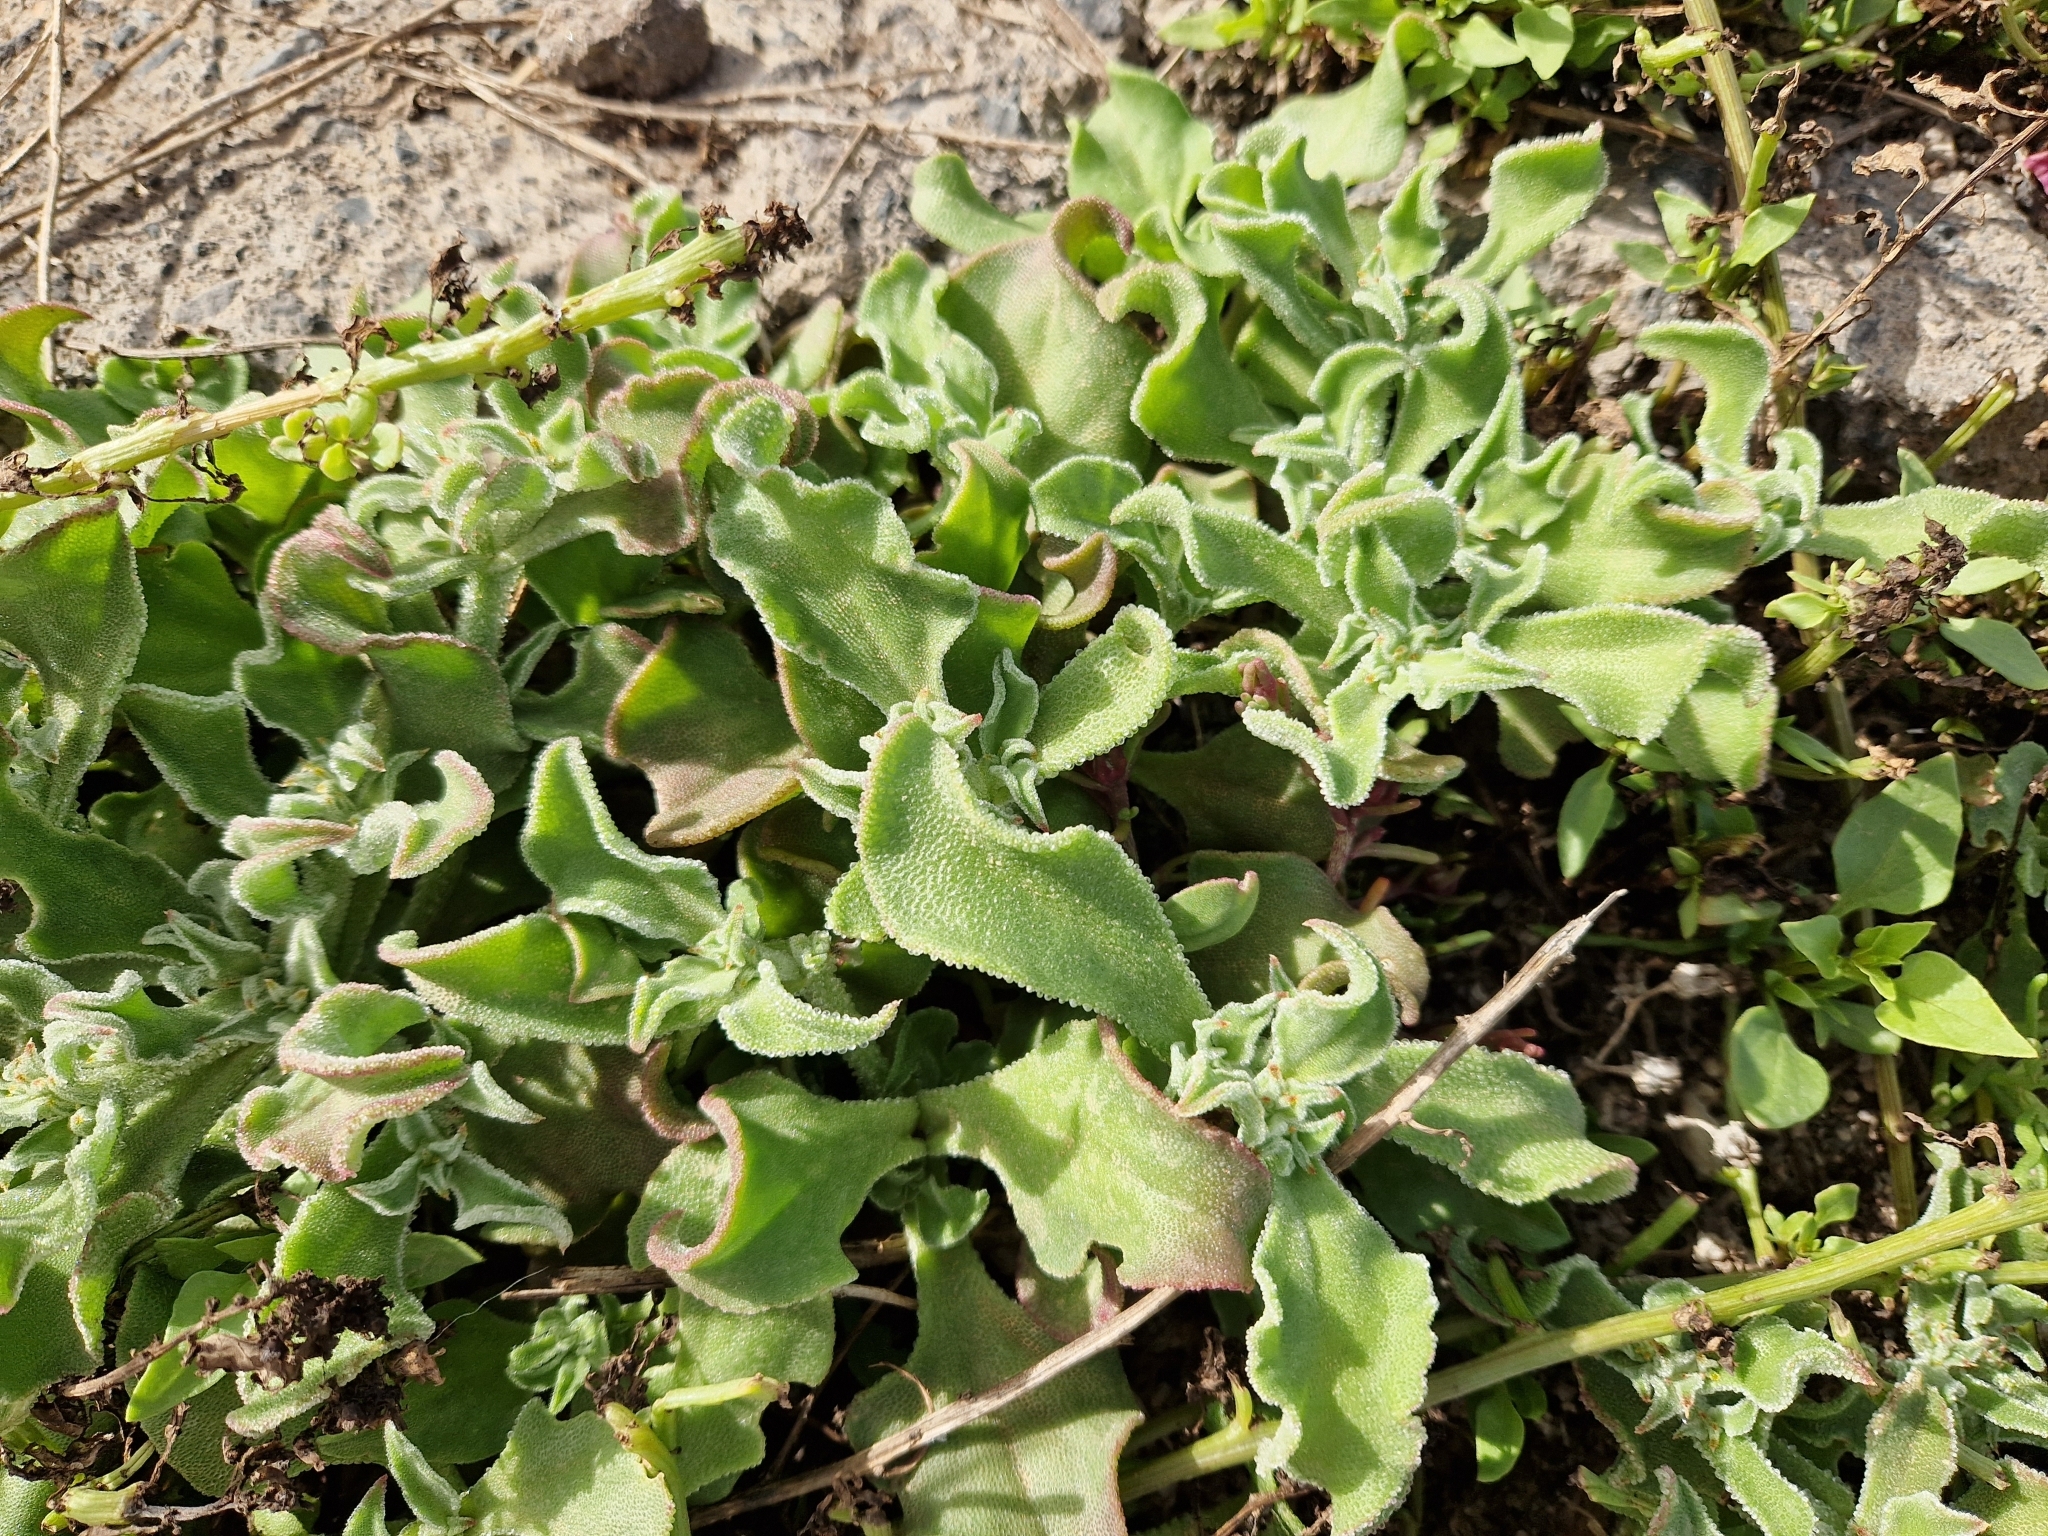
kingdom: Plantae
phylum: Tracheophyta
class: Magnoliopsida
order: Caryophyllales
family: Aizoaceae
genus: Mesembryanthemum
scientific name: Mesembryanthemum crystallinum
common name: Common iceplant
